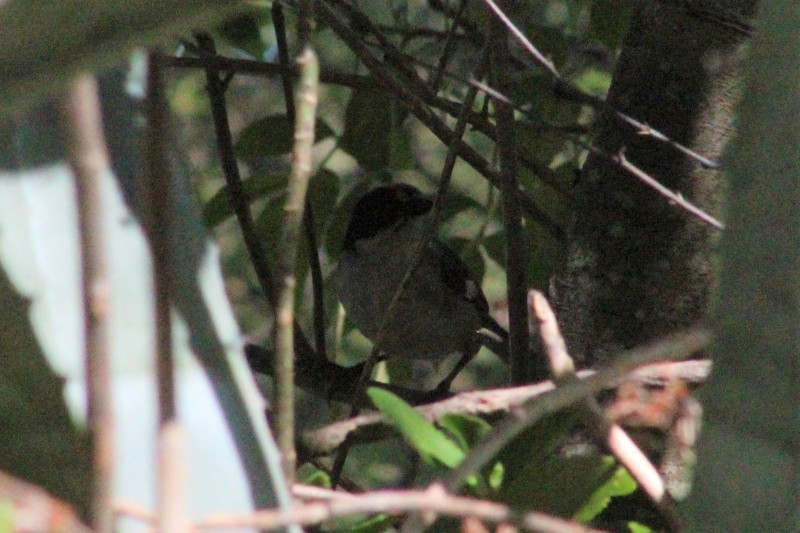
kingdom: Animalia
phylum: Chordata
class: Aves
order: Passeriformes
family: Passerellidae
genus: Atlapetes
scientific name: Atlapetes leucopterus
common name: White-winged brushfinch
